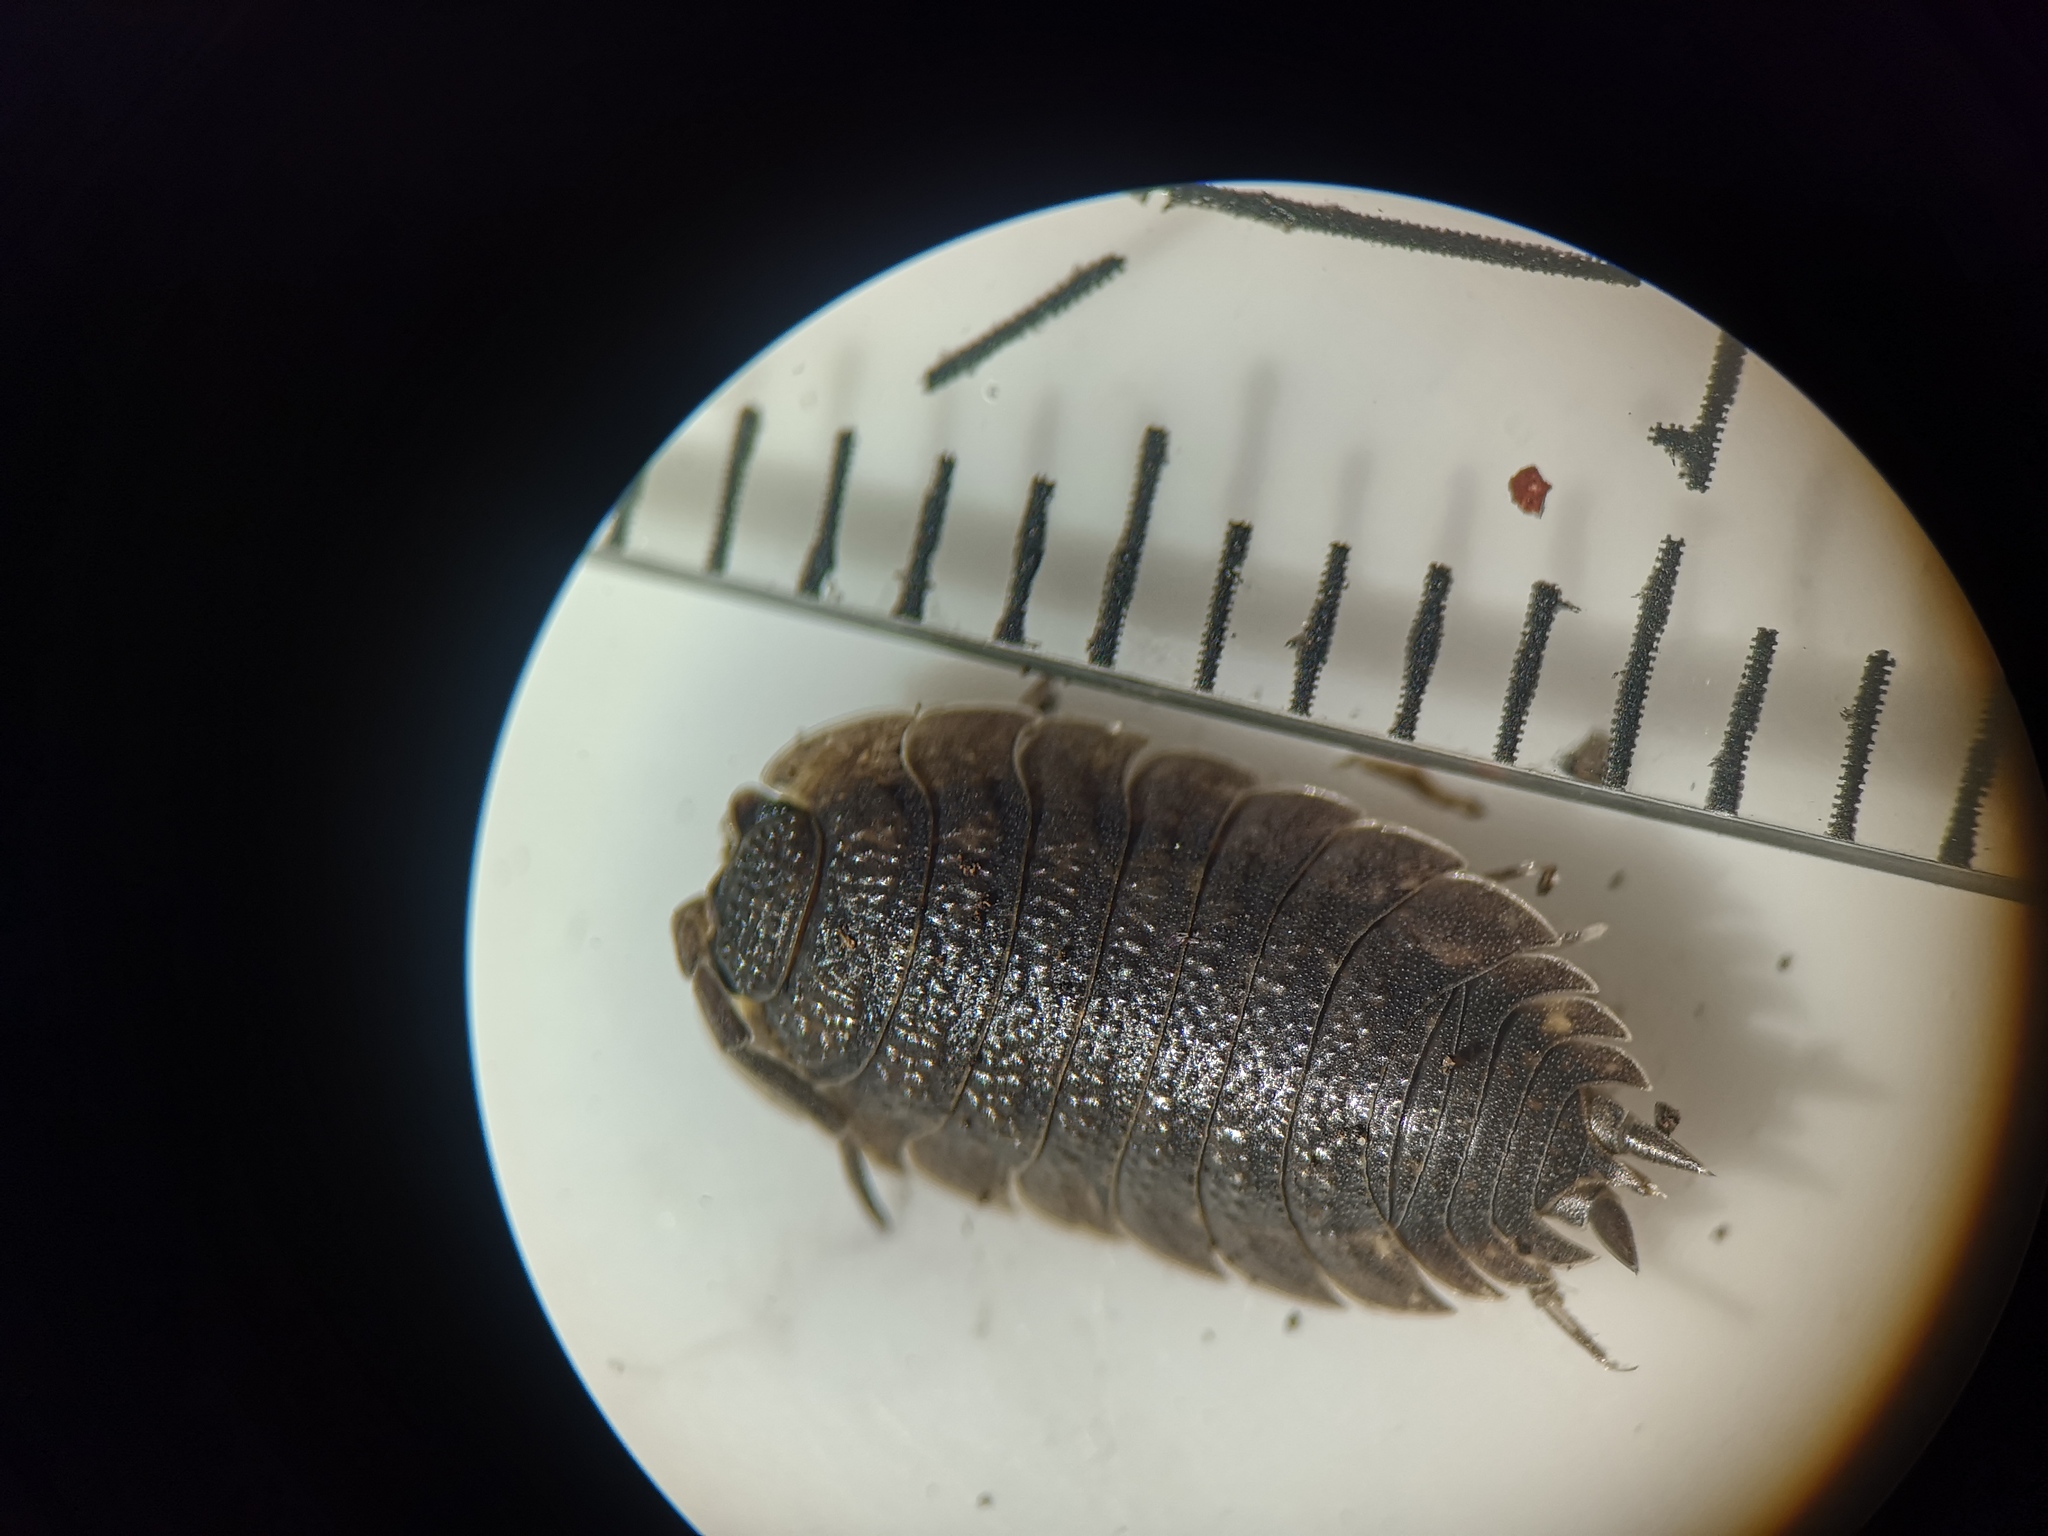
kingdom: Animalia
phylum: Arthropoda
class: Malacostraca
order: Isopoda
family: Porcellionidae
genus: Porcellio
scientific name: Porcellio scaber
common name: Common rough woodlouse
